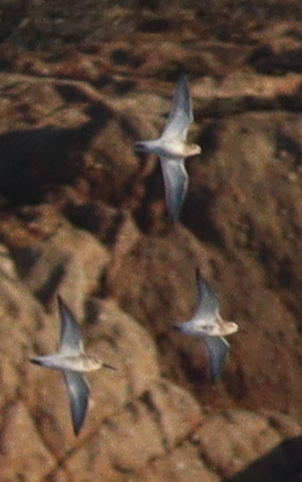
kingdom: Animalia
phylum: Chordata
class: Aves
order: Charadriiformes
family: Scolopacidae
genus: Calidris
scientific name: Calidris alpina
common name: Dunlin
